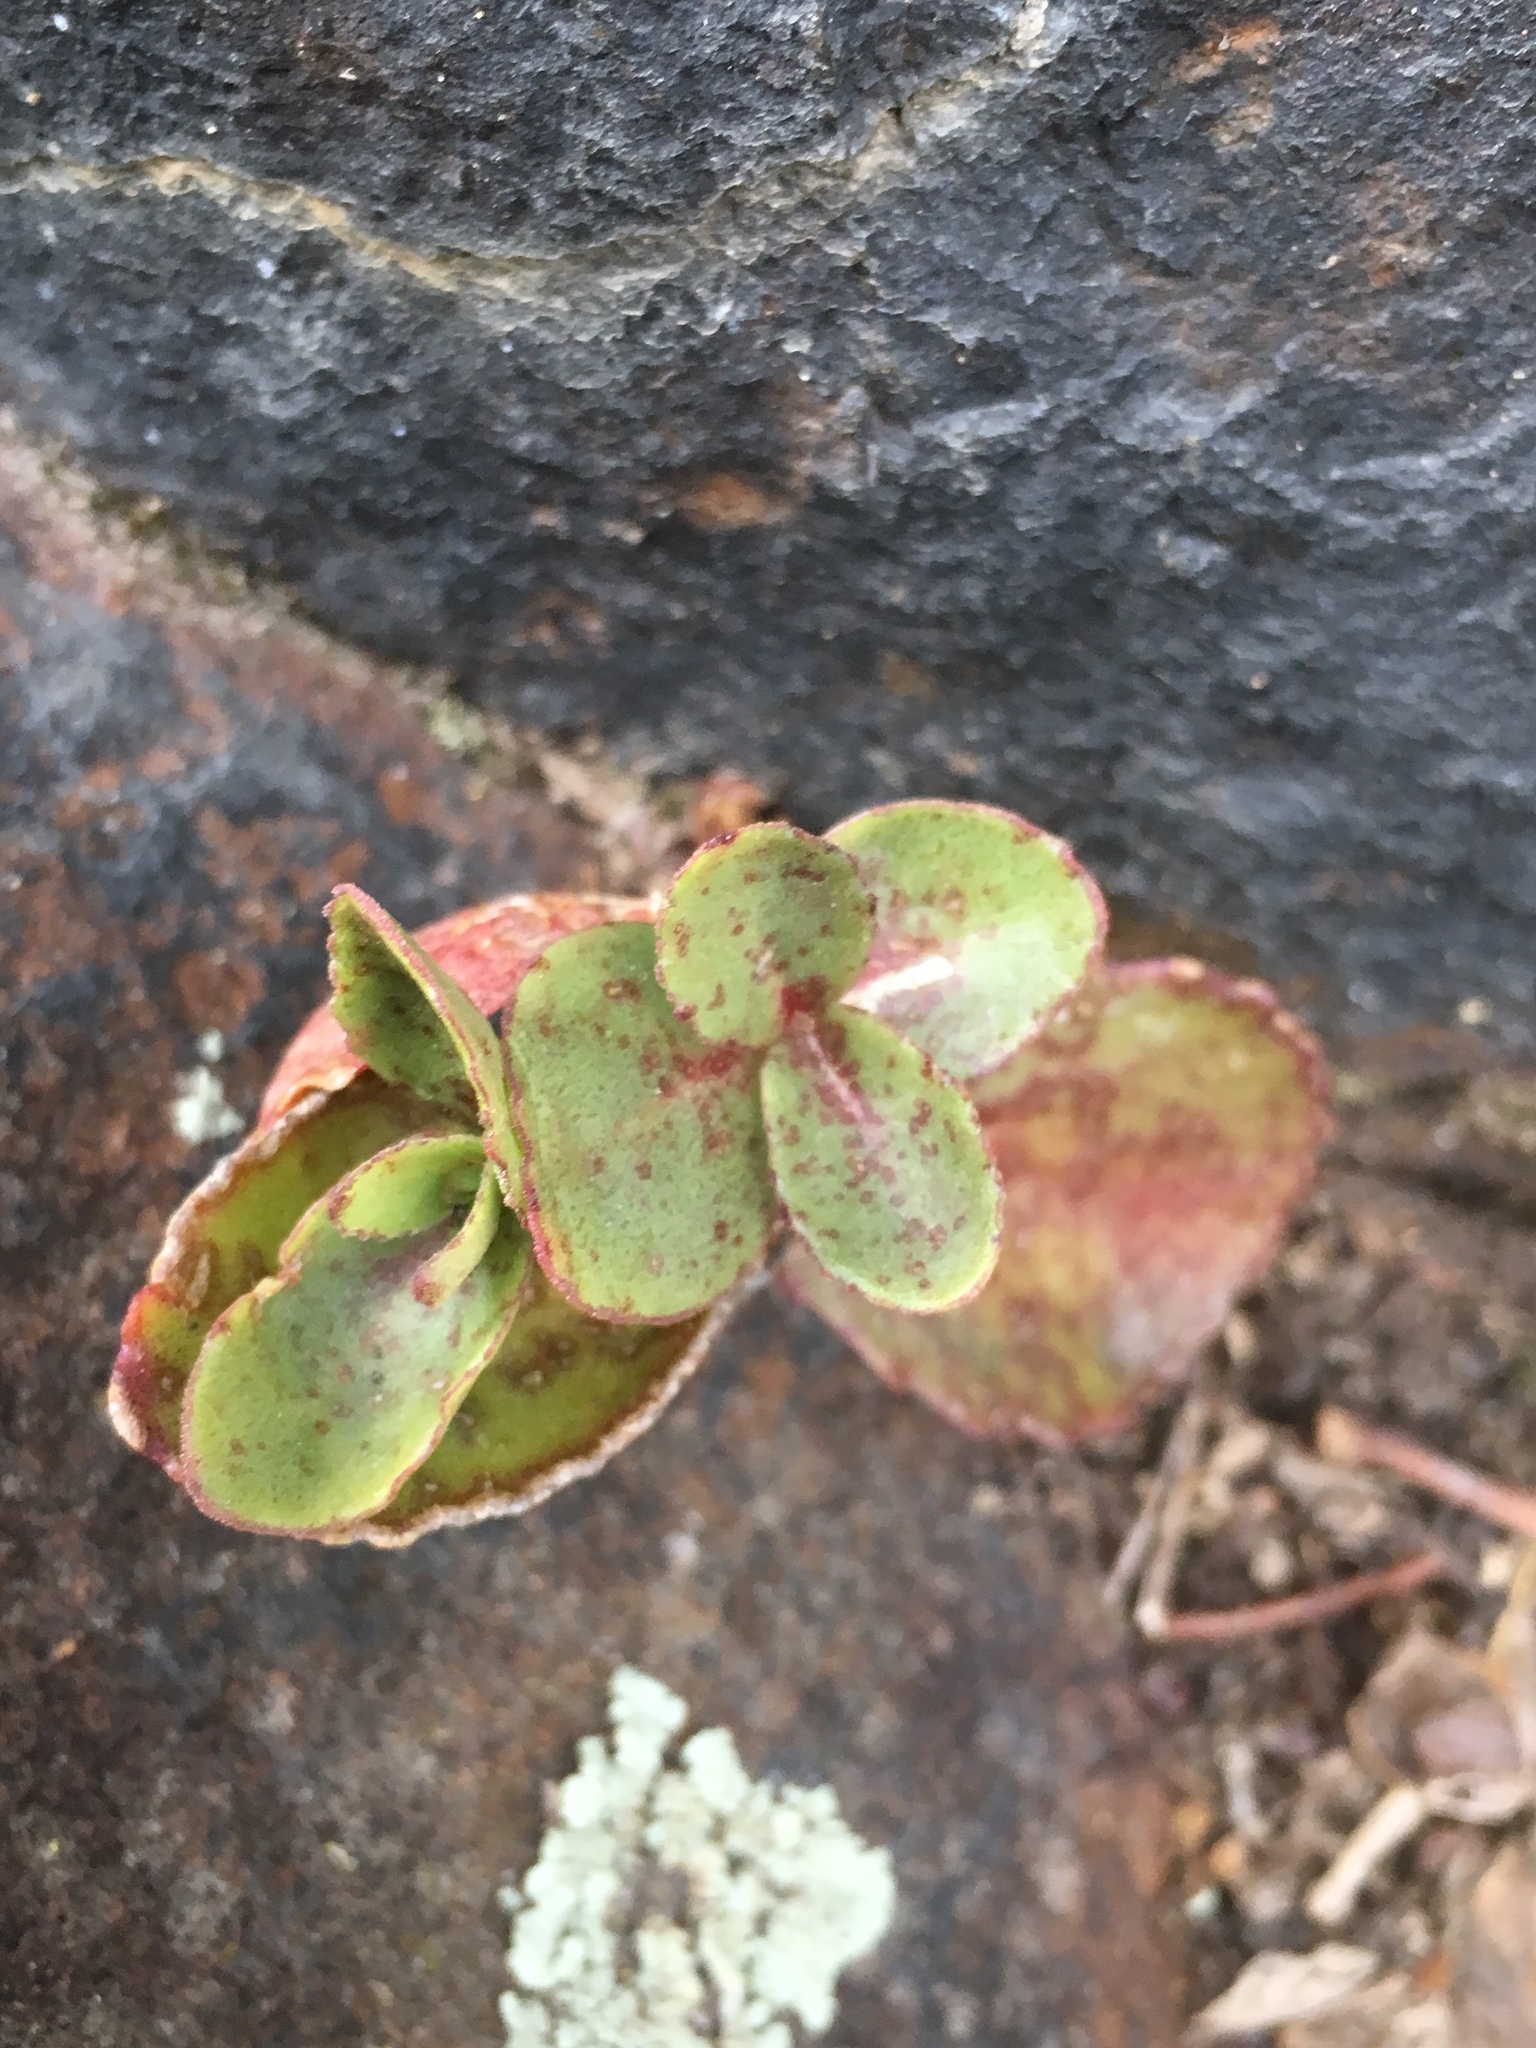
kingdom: Plantae
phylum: Tracheophyta
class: Magnoliopsida
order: Saxifragales
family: Crassulaceae
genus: Hylotelephium
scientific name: Hylotelephium maximum
